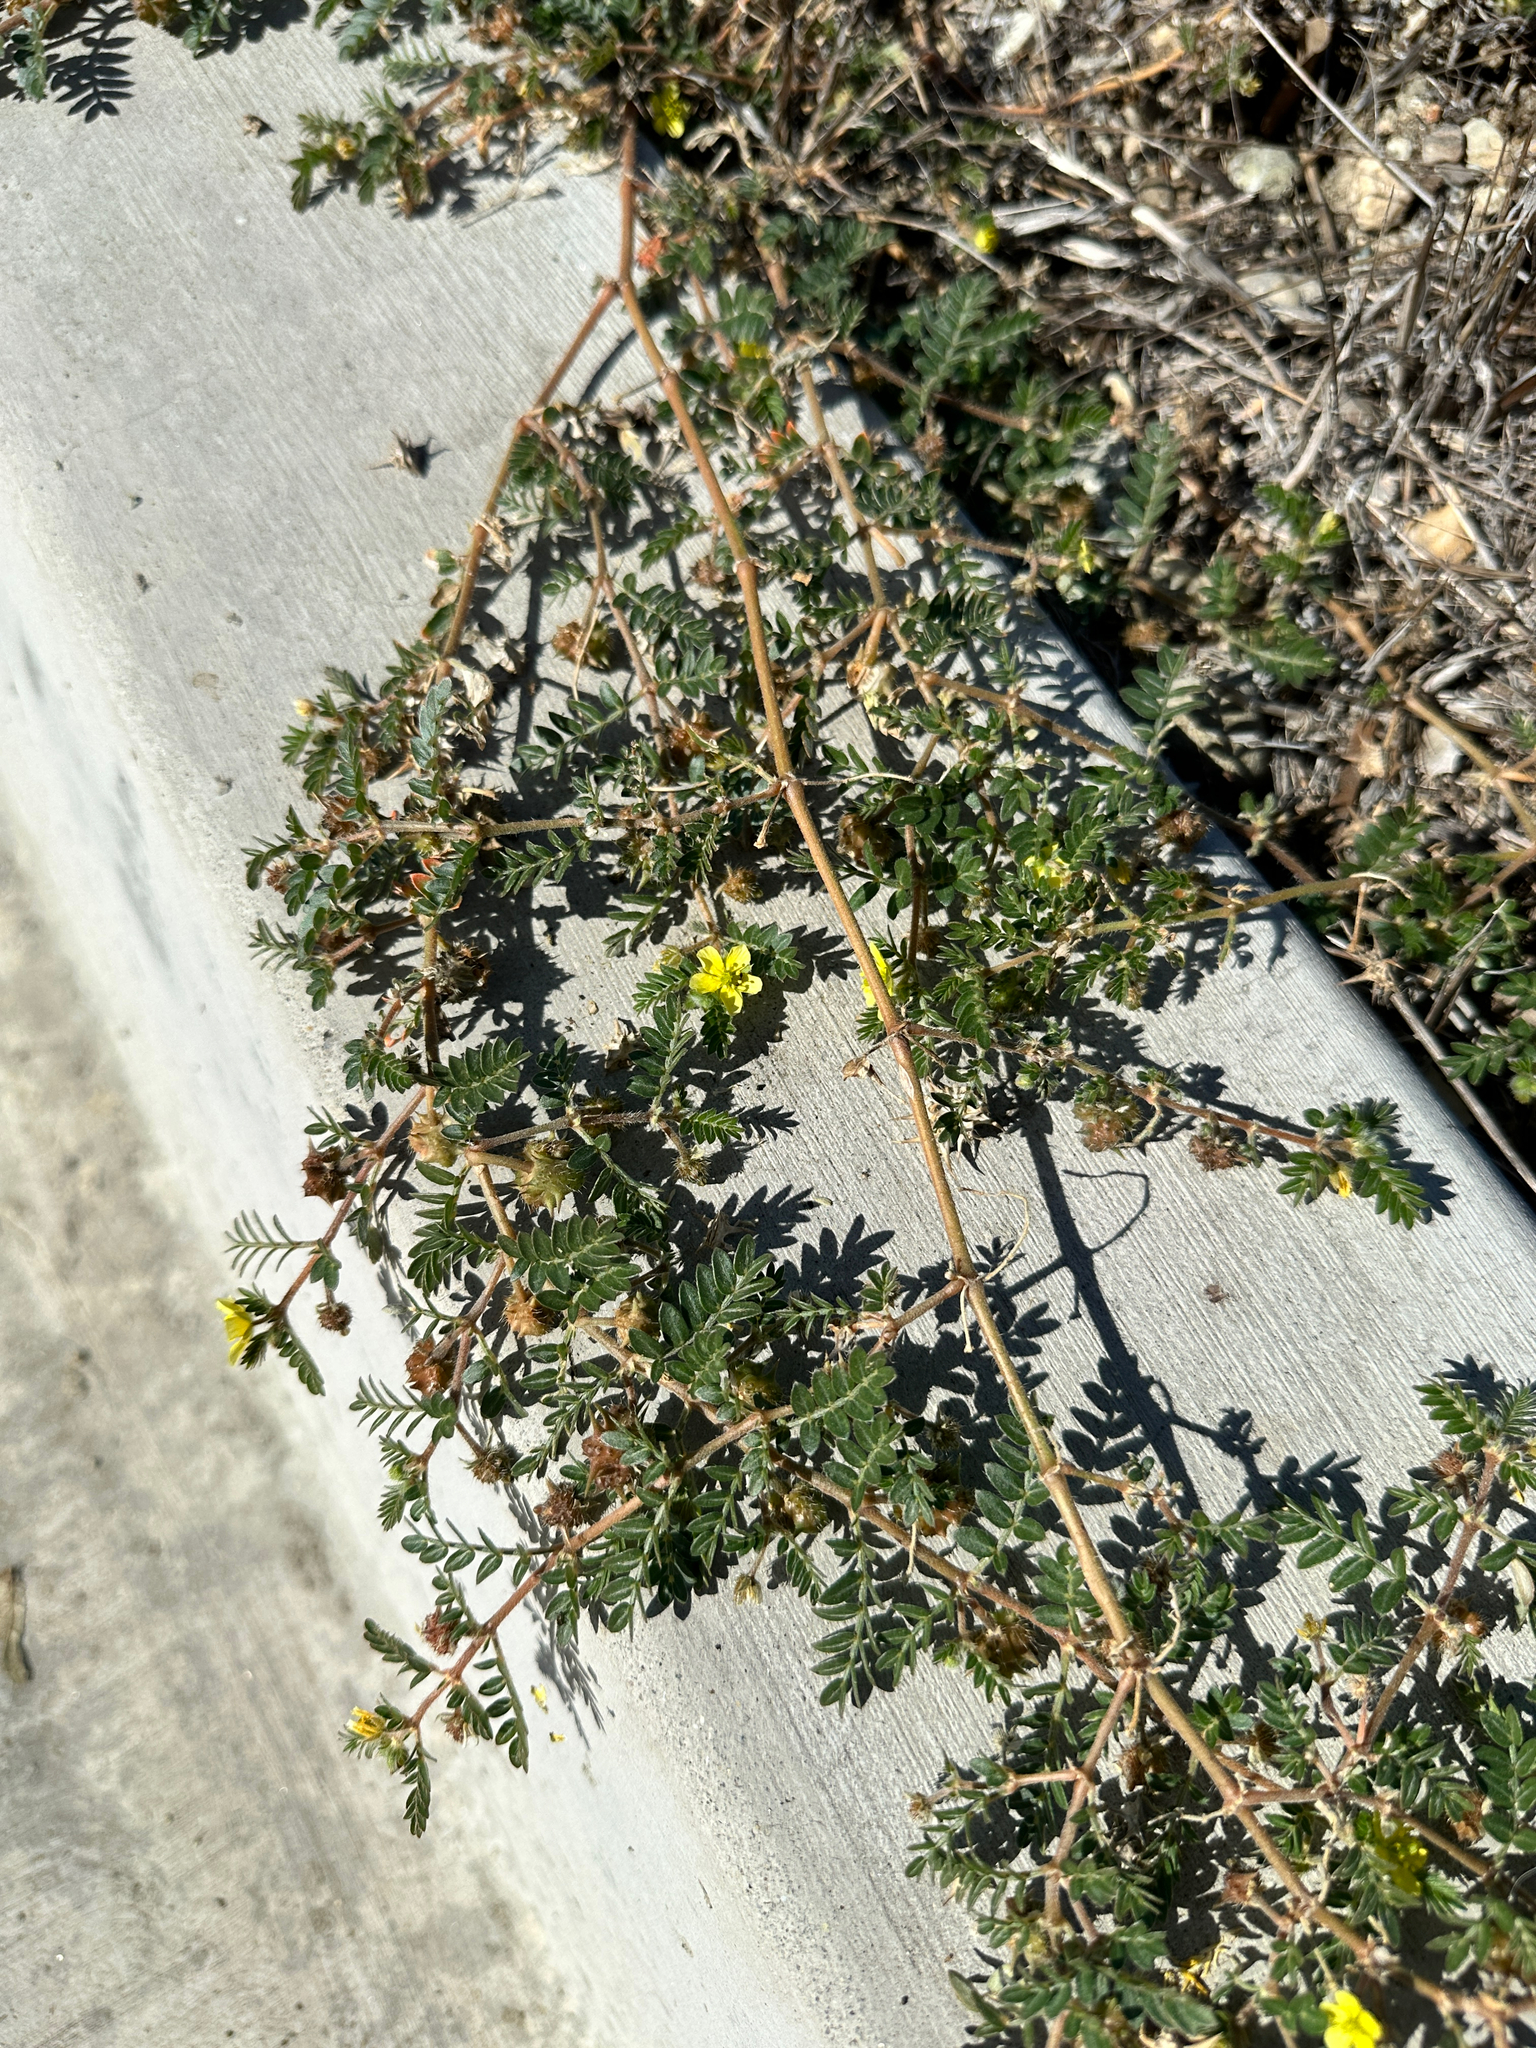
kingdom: Plantae
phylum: Tracheophyta
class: Magnoliopsida
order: Zygophyllales
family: Zygophyllaceae
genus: Tribulus
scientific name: Tribulus terrestris
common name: Puncturevine
